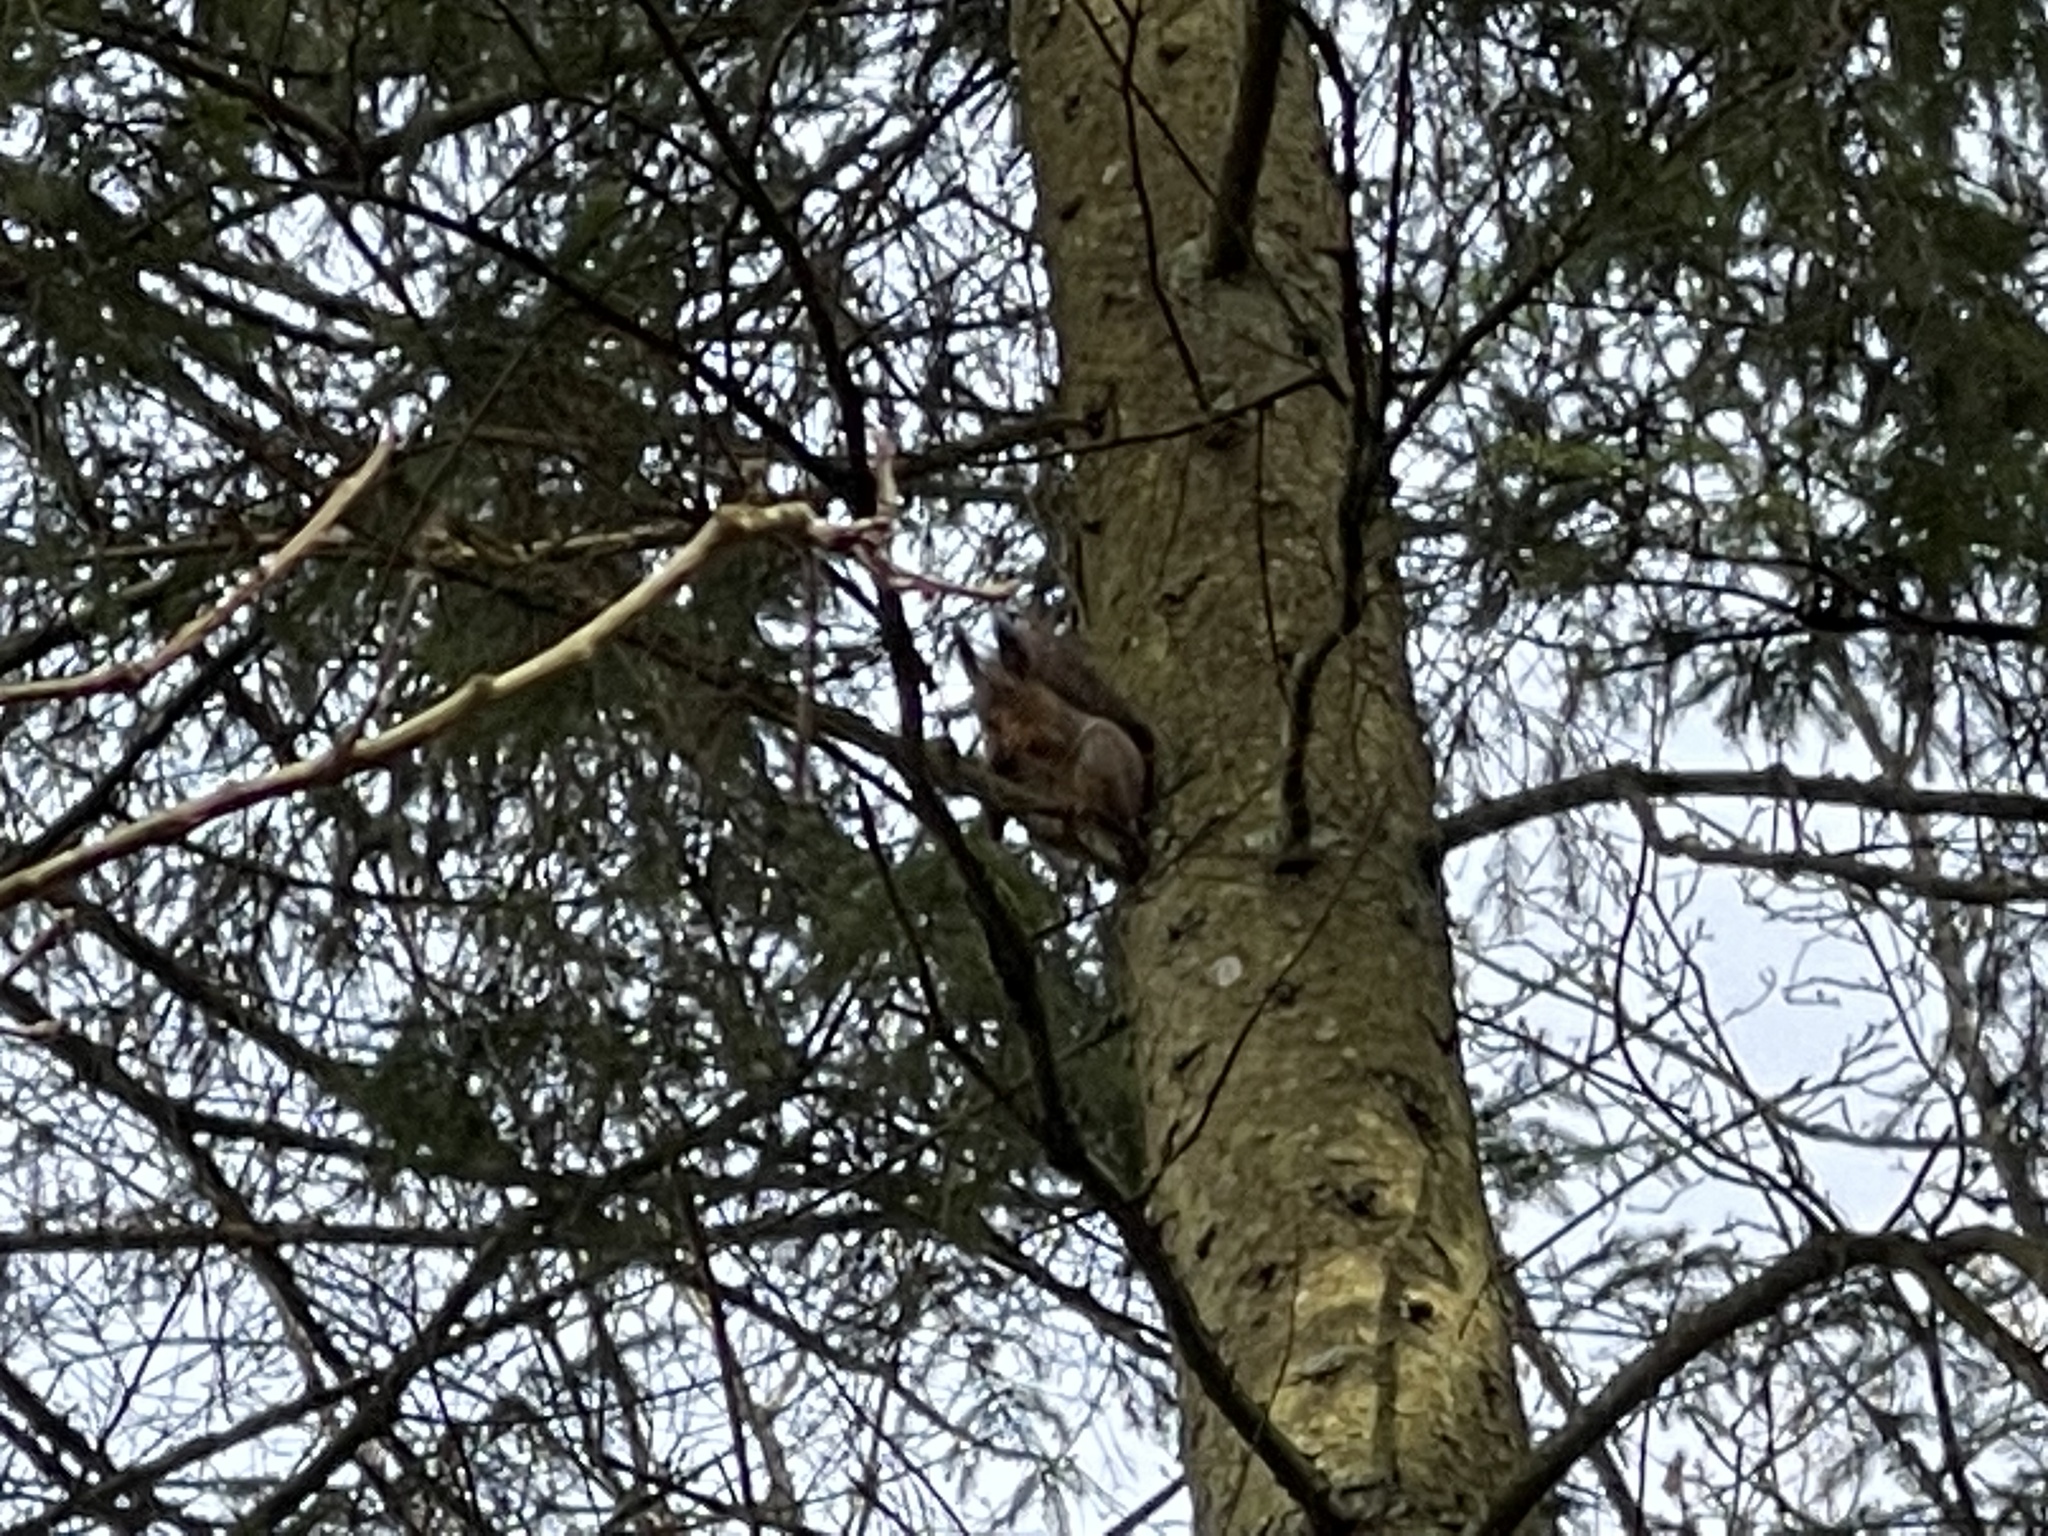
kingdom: Animalia
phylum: Chordata
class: Mammalia
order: Rodentia
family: Sciuridae
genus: Sciurus
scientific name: Sciurus vulgaris
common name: Eurasian red squirrel
